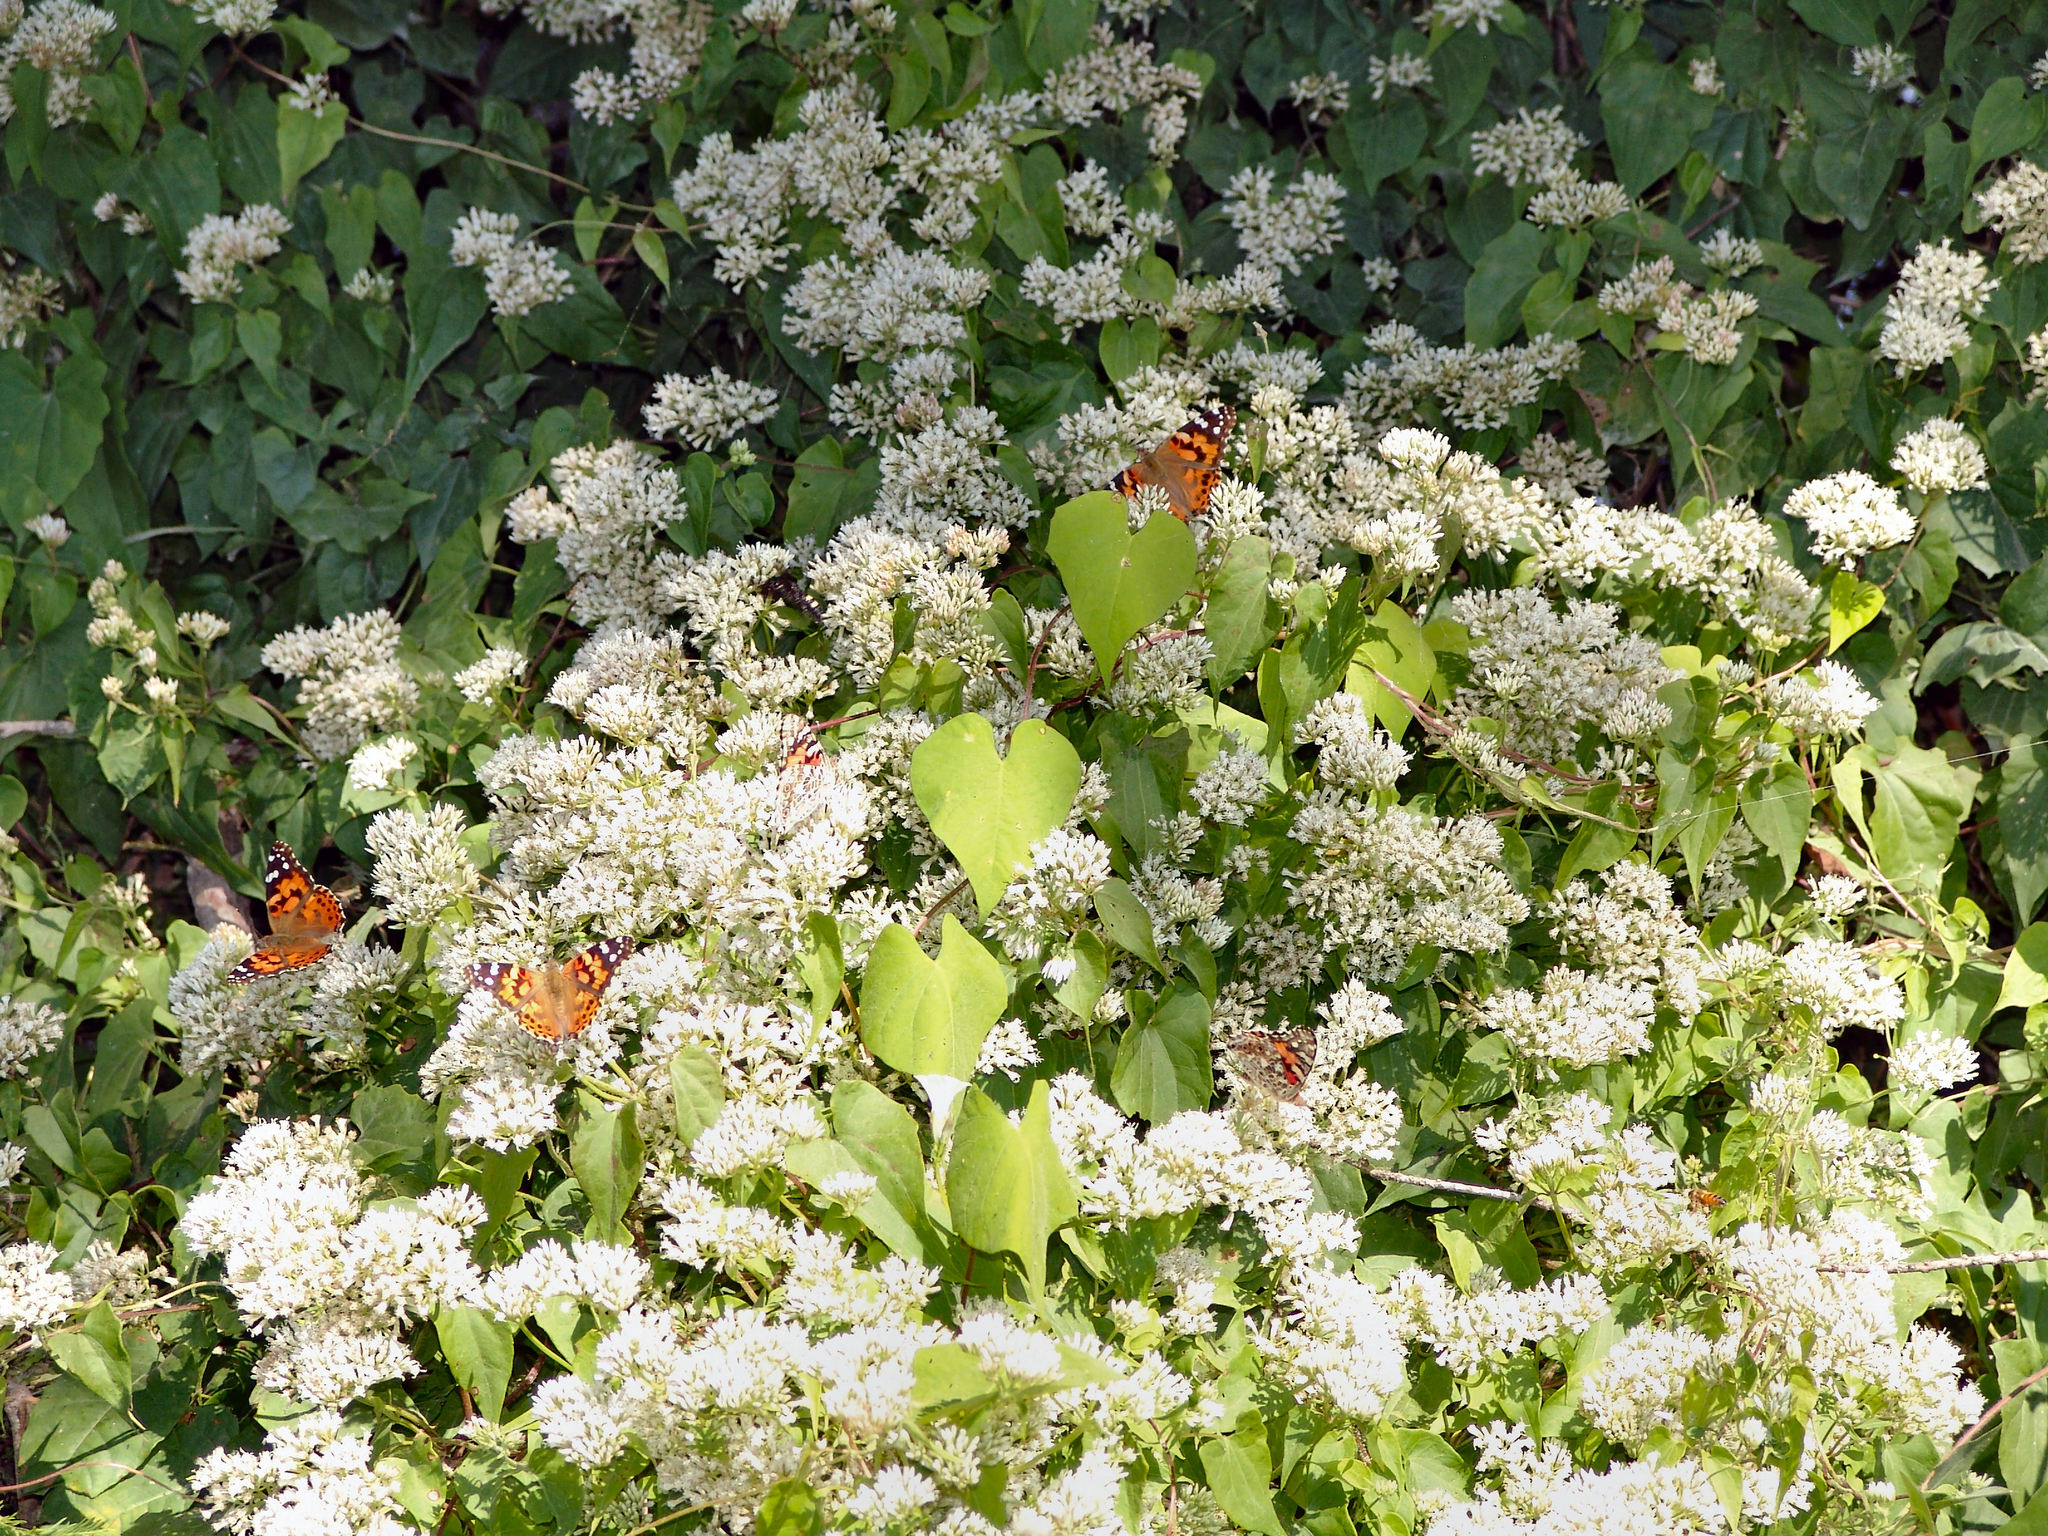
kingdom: Plantae
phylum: Tracheophyta
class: Magnoliopsida
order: Asterales
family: Asteraceae
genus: Mikania
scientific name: Mikania scandens
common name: Climbing hempvine
